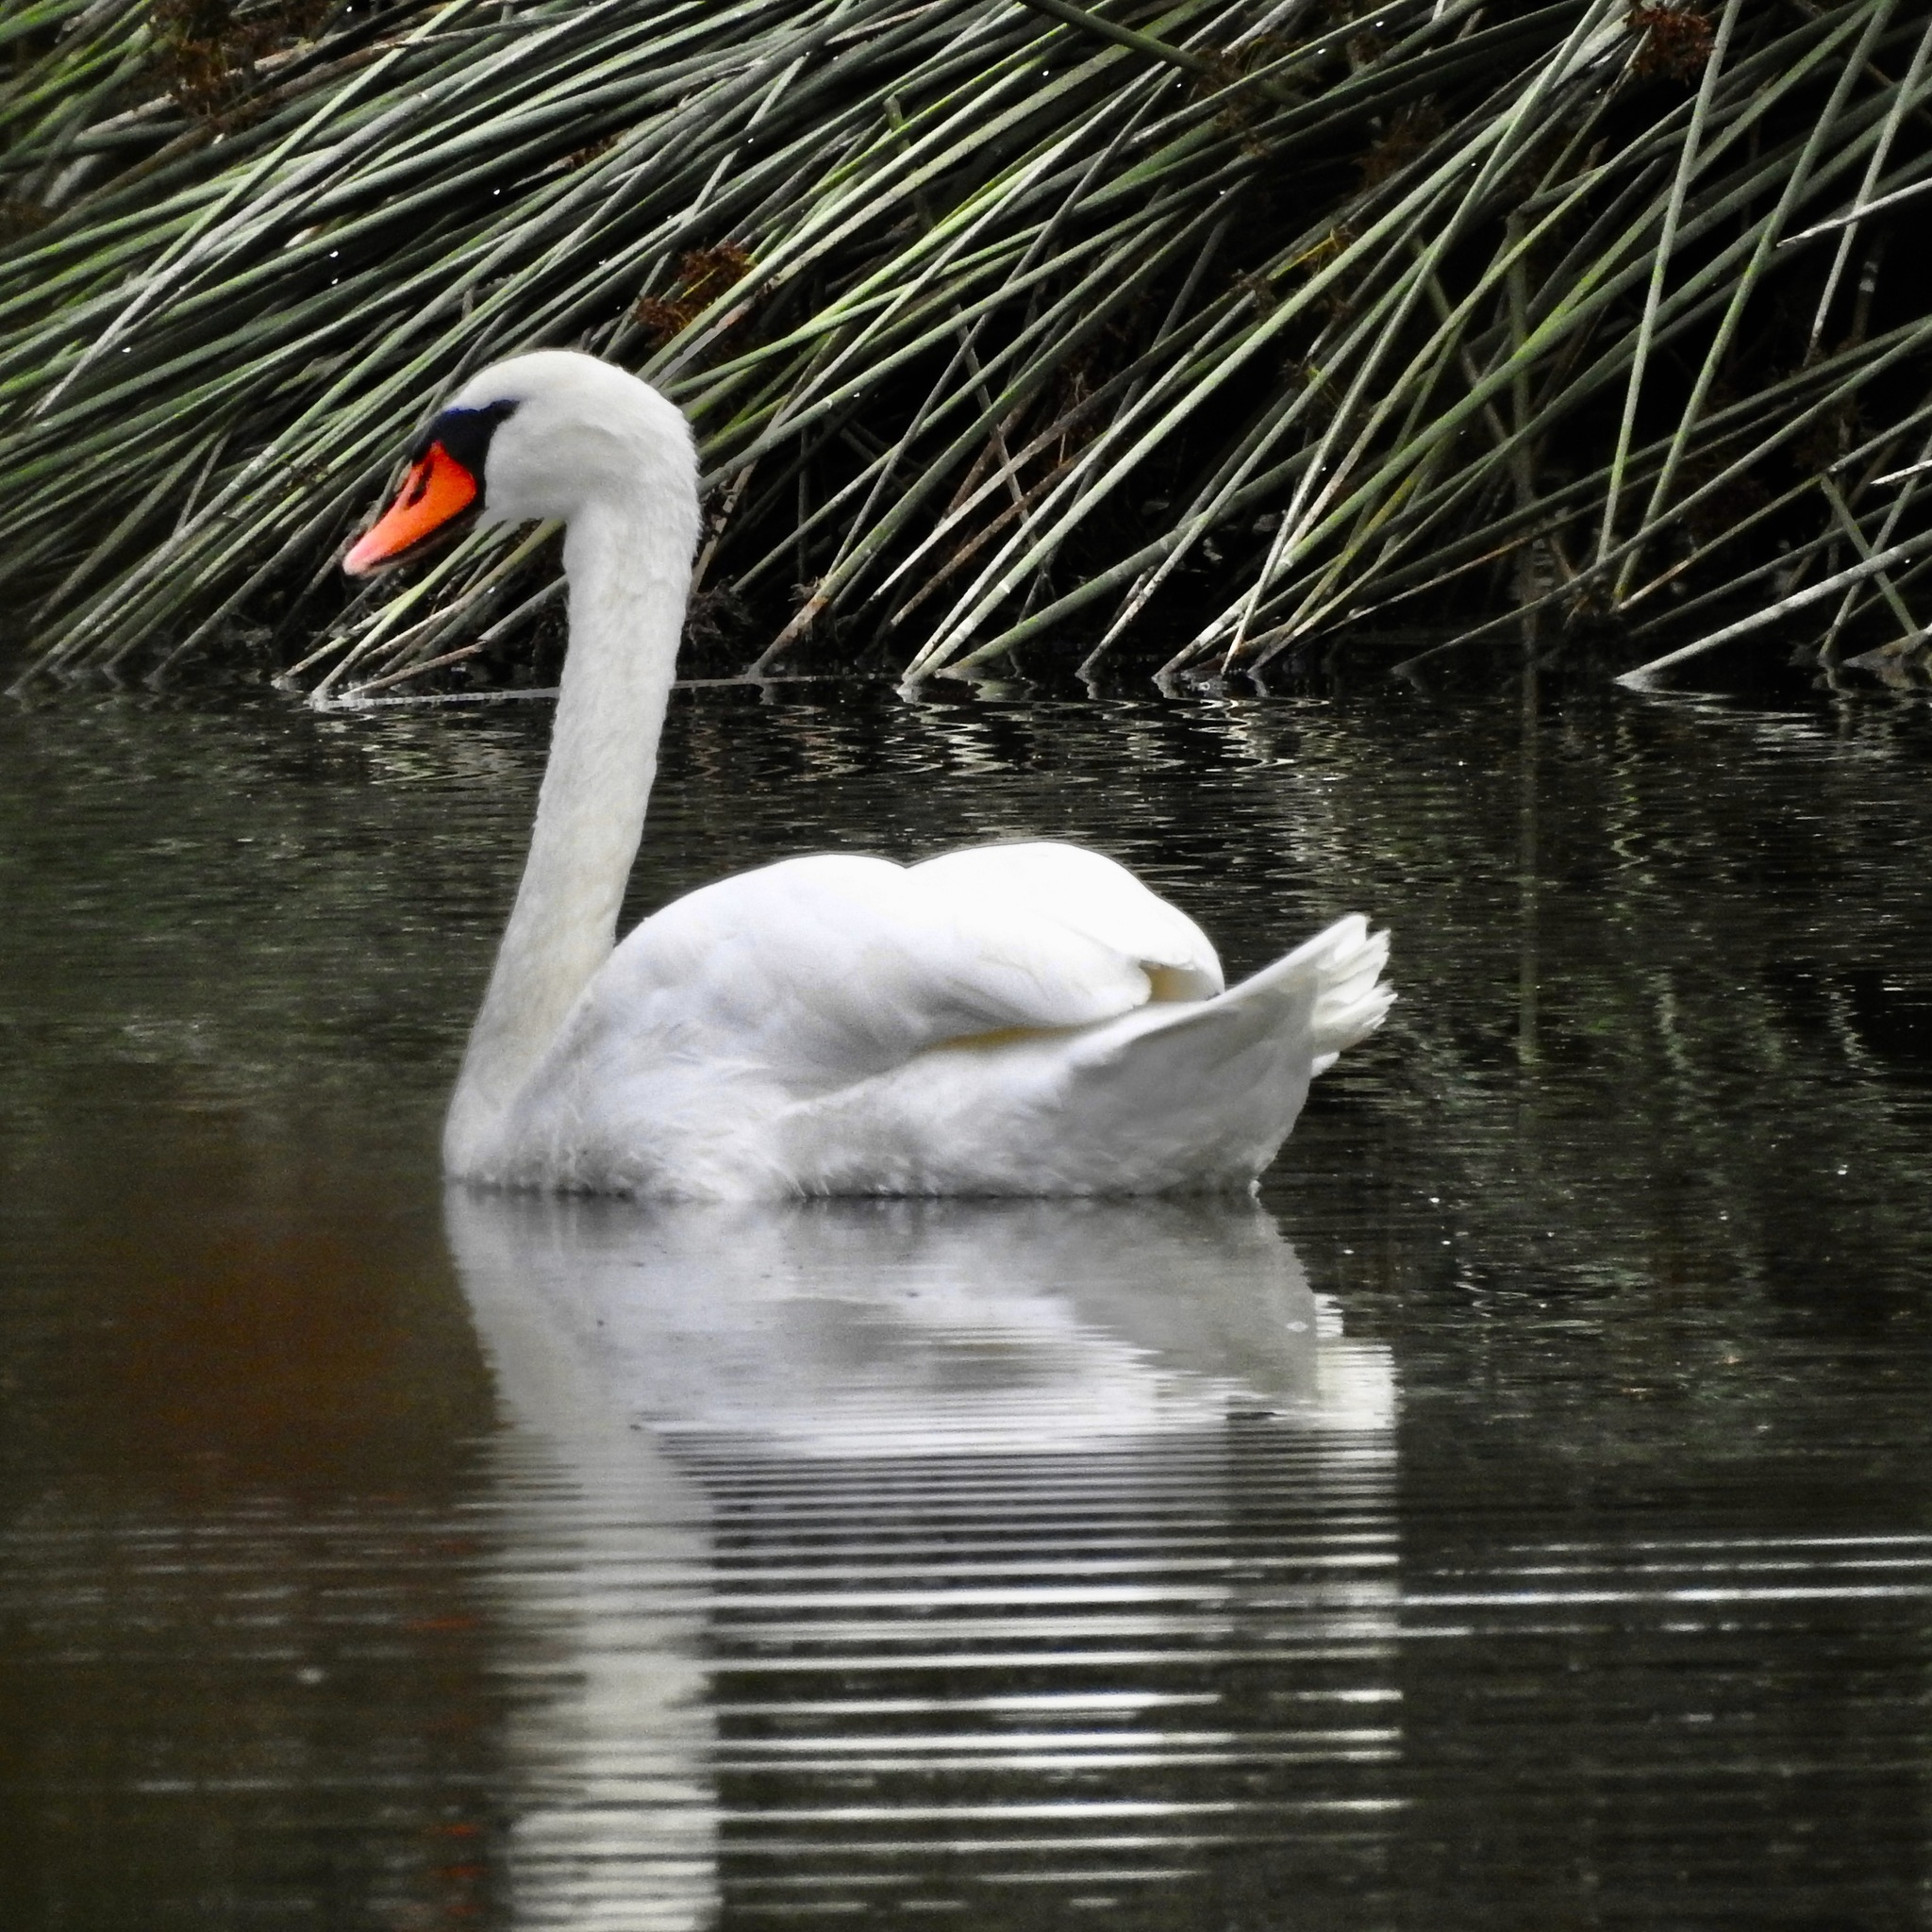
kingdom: Animalia
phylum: Chordata
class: Aves
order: Anseriformes
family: Anatidae
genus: Cygnus
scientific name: Cygnus olor
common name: Mute swan
